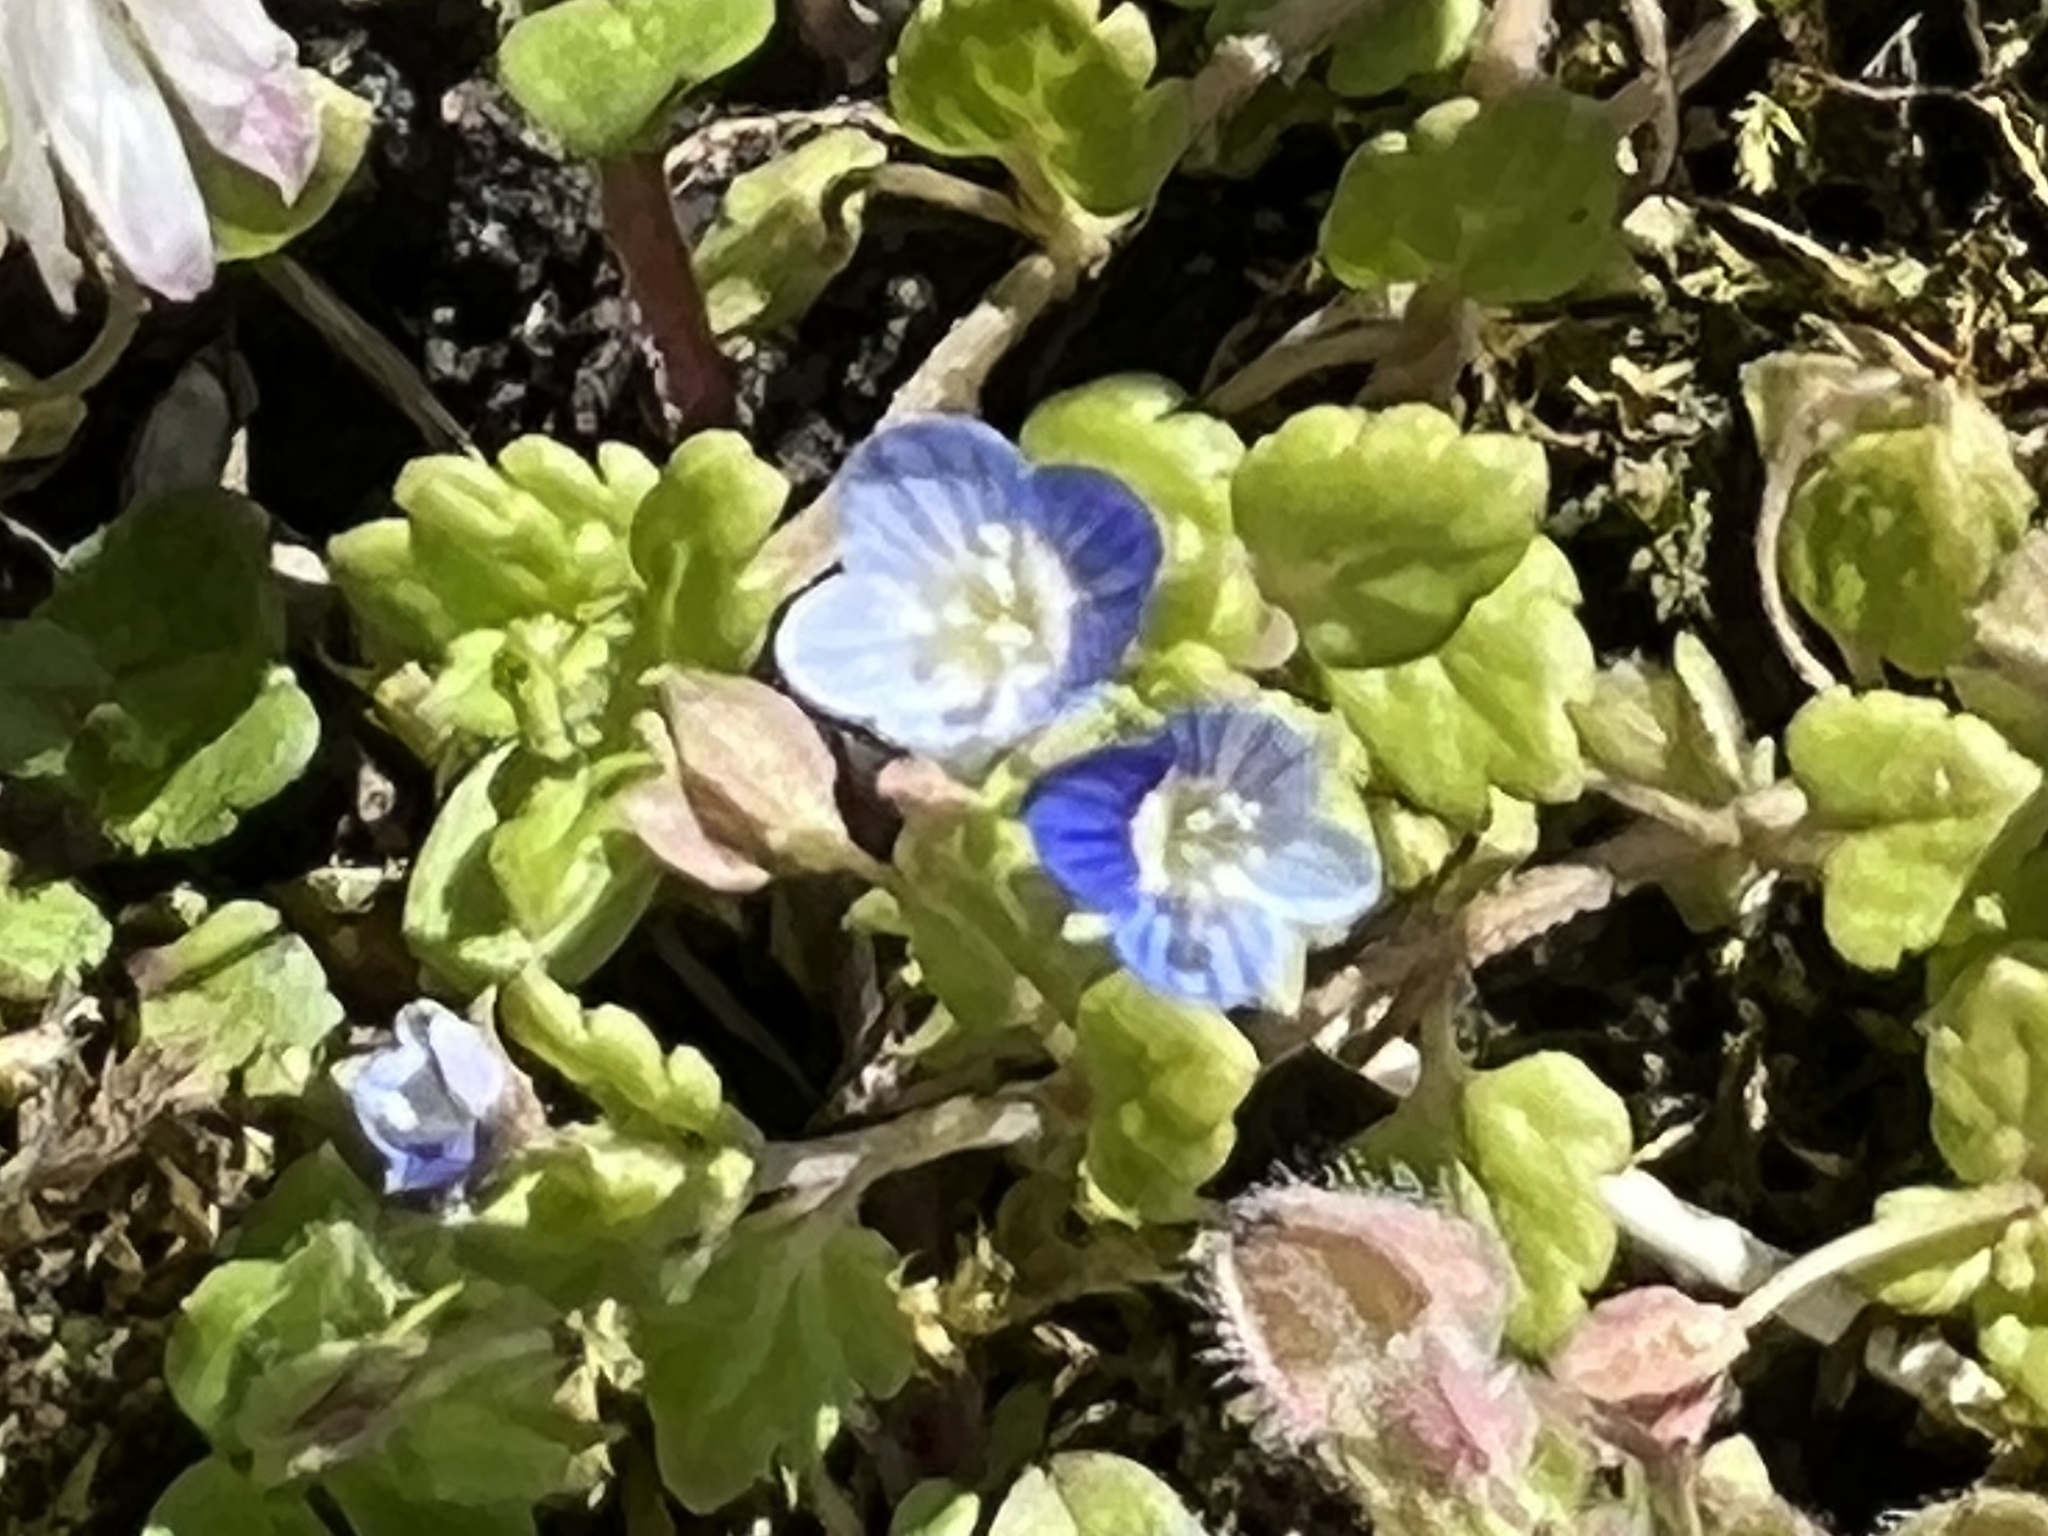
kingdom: Plantae
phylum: Tracheophyta
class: Magnoliopsida
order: Lamiales
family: Plantaginaceae
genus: Veronica
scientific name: Veronica polita
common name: Grey field-speedwell
